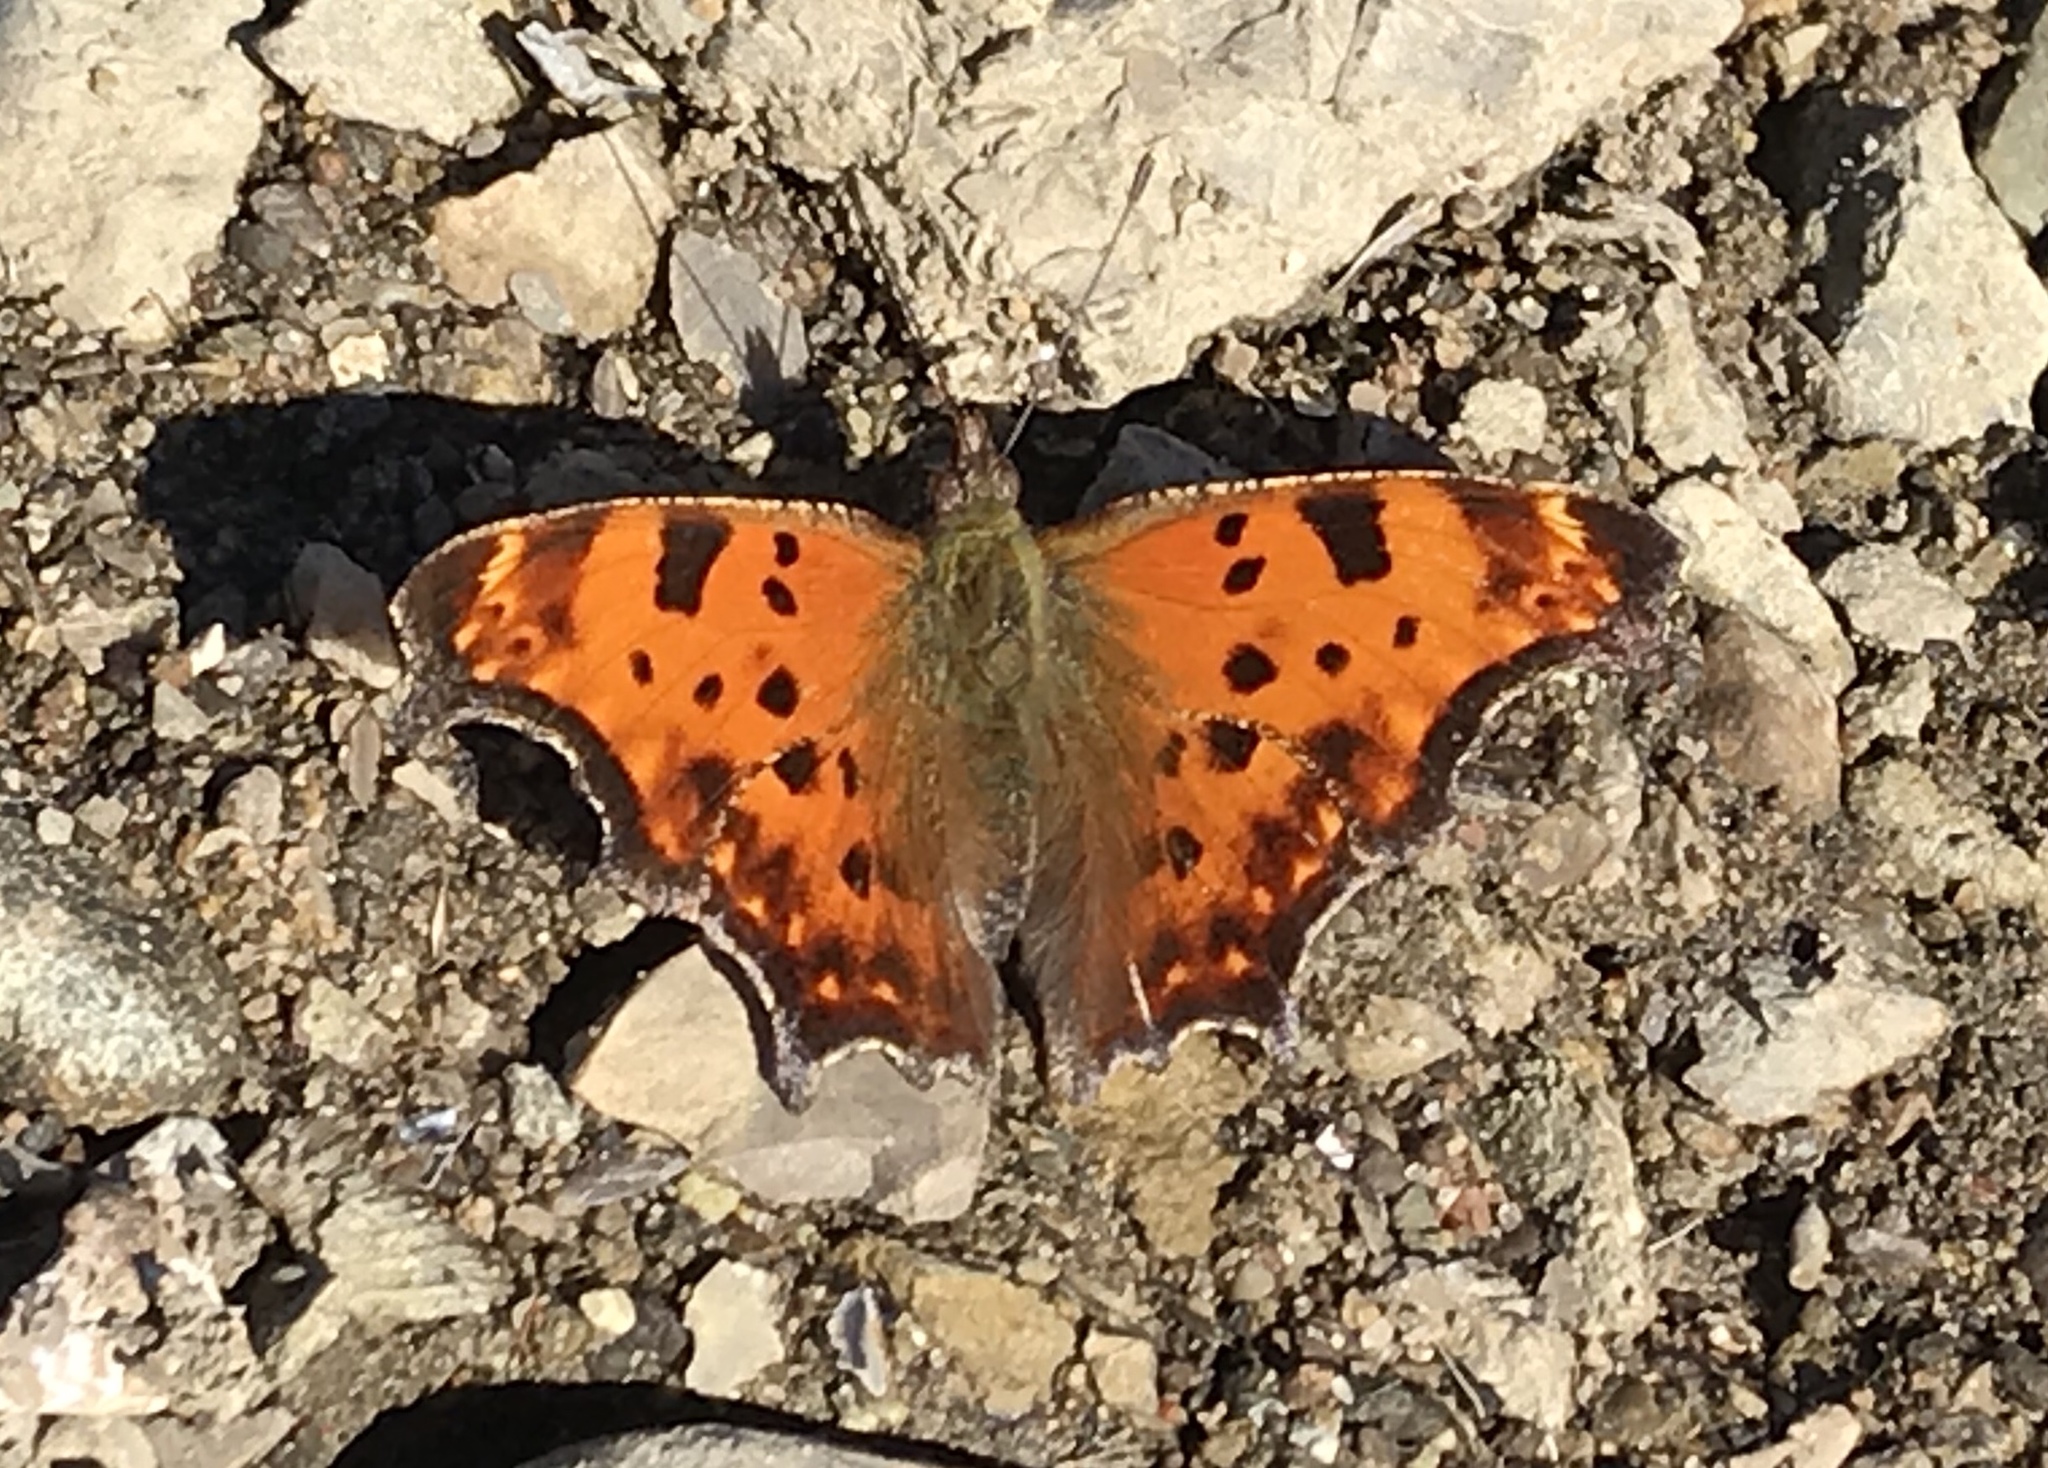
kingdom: Animalia
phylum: Arthropoda
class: Insecta
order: Lepidoptera
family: Nymphalidae
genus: Polygonia
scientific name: Polygonia comma
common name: Eastern comma
